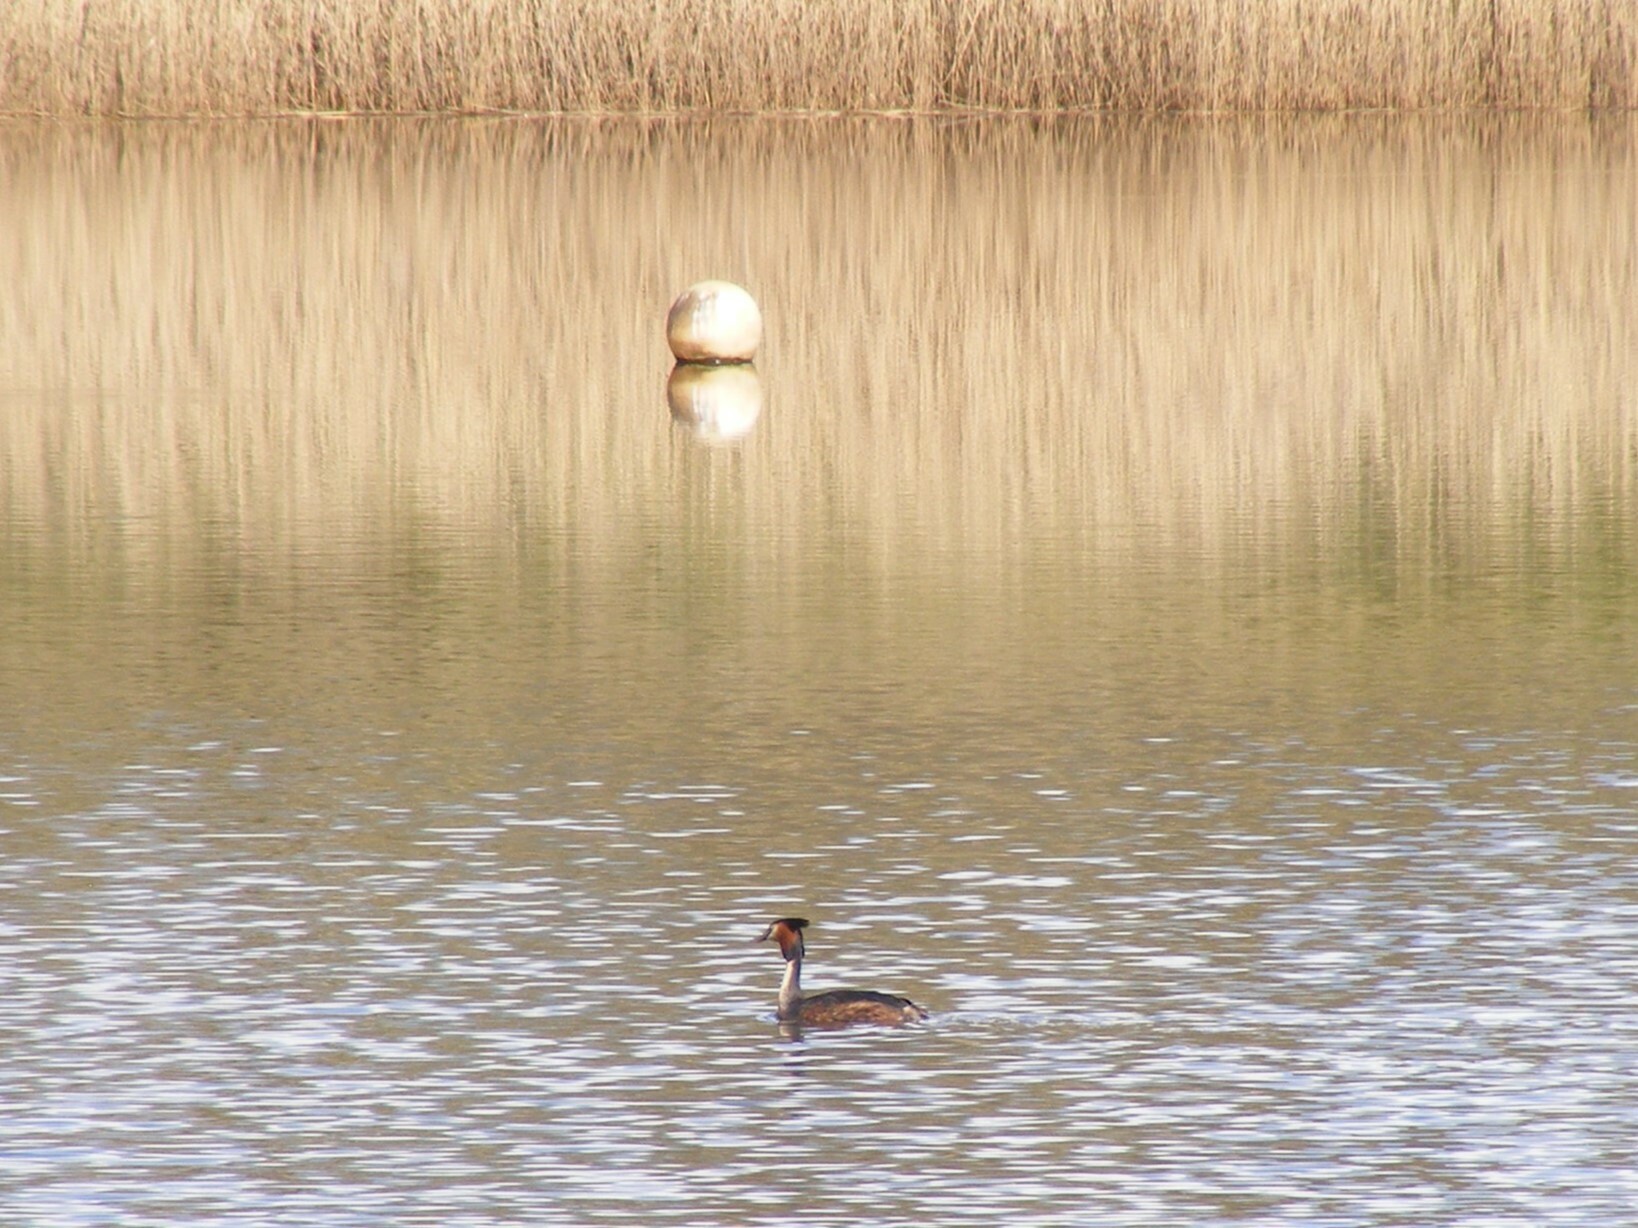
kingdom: Animalia
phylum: Chordata
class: Aves
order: Podicipediformes
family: Podicipedidae
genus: Podiceps
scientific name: Podiceps cristatus
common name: Great crested grebe
